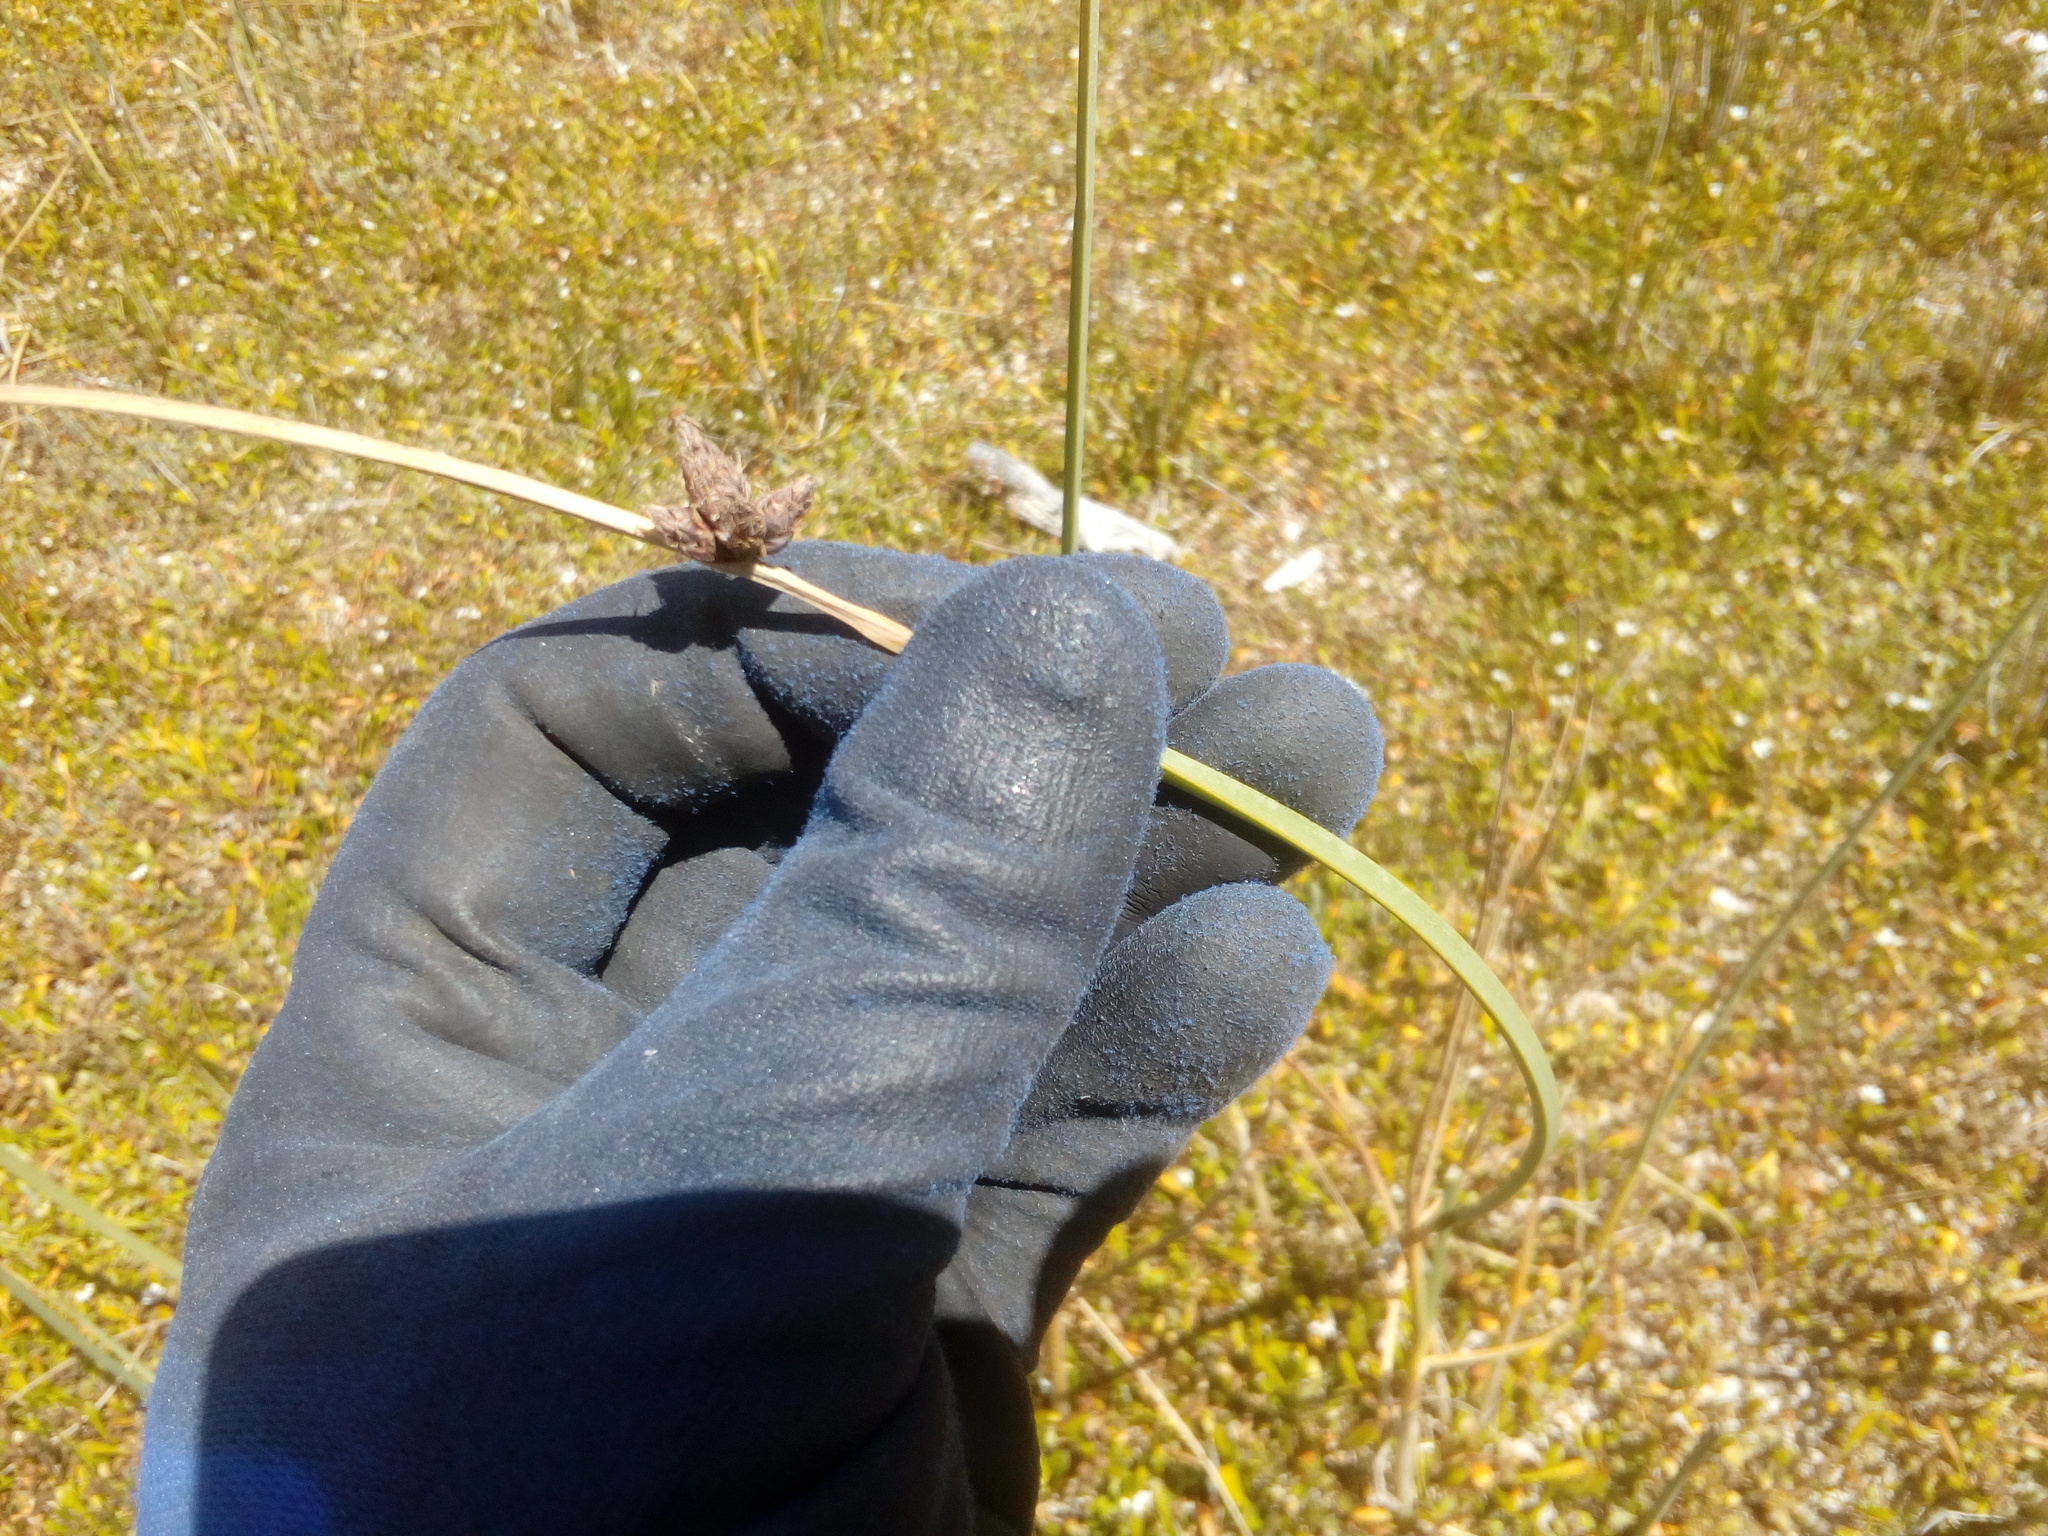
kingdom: Plantae
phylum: Tracheophyta
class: Liliopsida
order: Poales
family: Cyperaceae
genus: Schoenoplectus
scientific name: Schoenoplectus pungens
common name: Sharp club-rush
